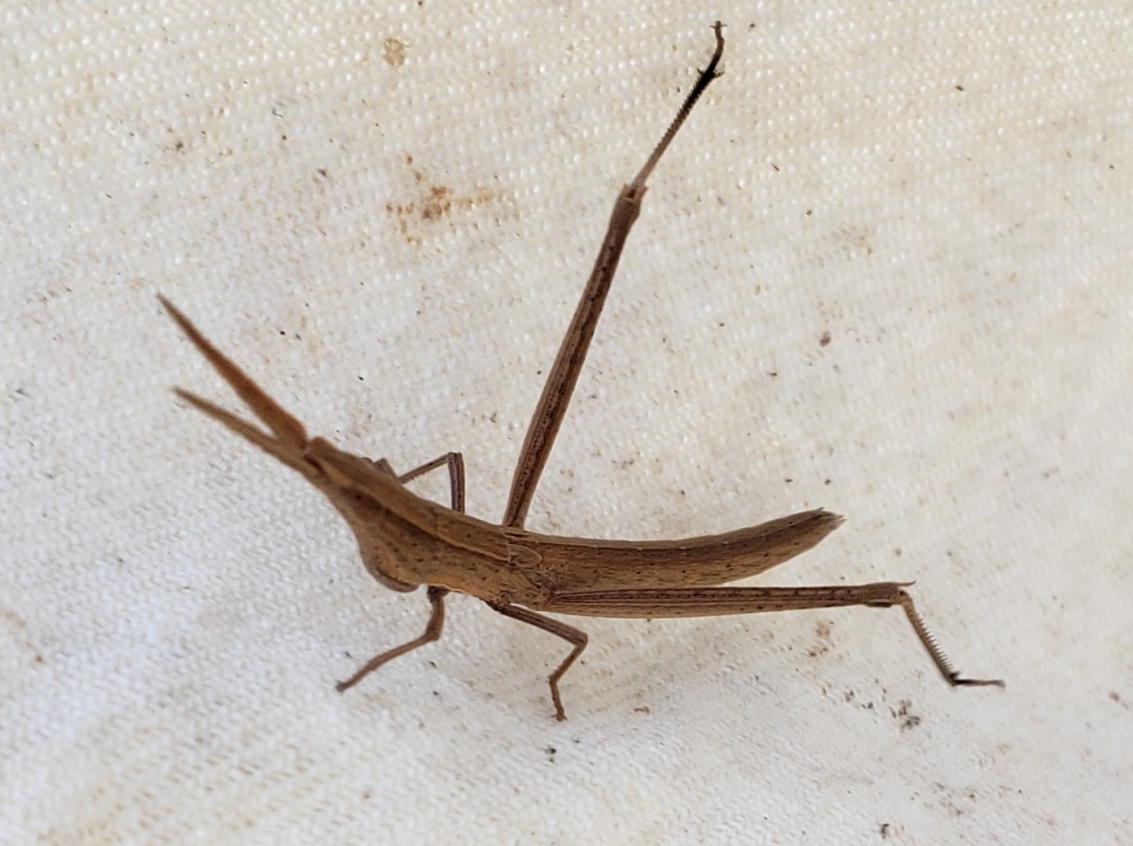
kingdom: Animalia
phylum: Arthropoda
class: Insecta
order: Orthoptera
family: Acrididae
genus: Achurum
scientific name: Achurum carinatum
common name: Long-headed toothpick grasshopper
